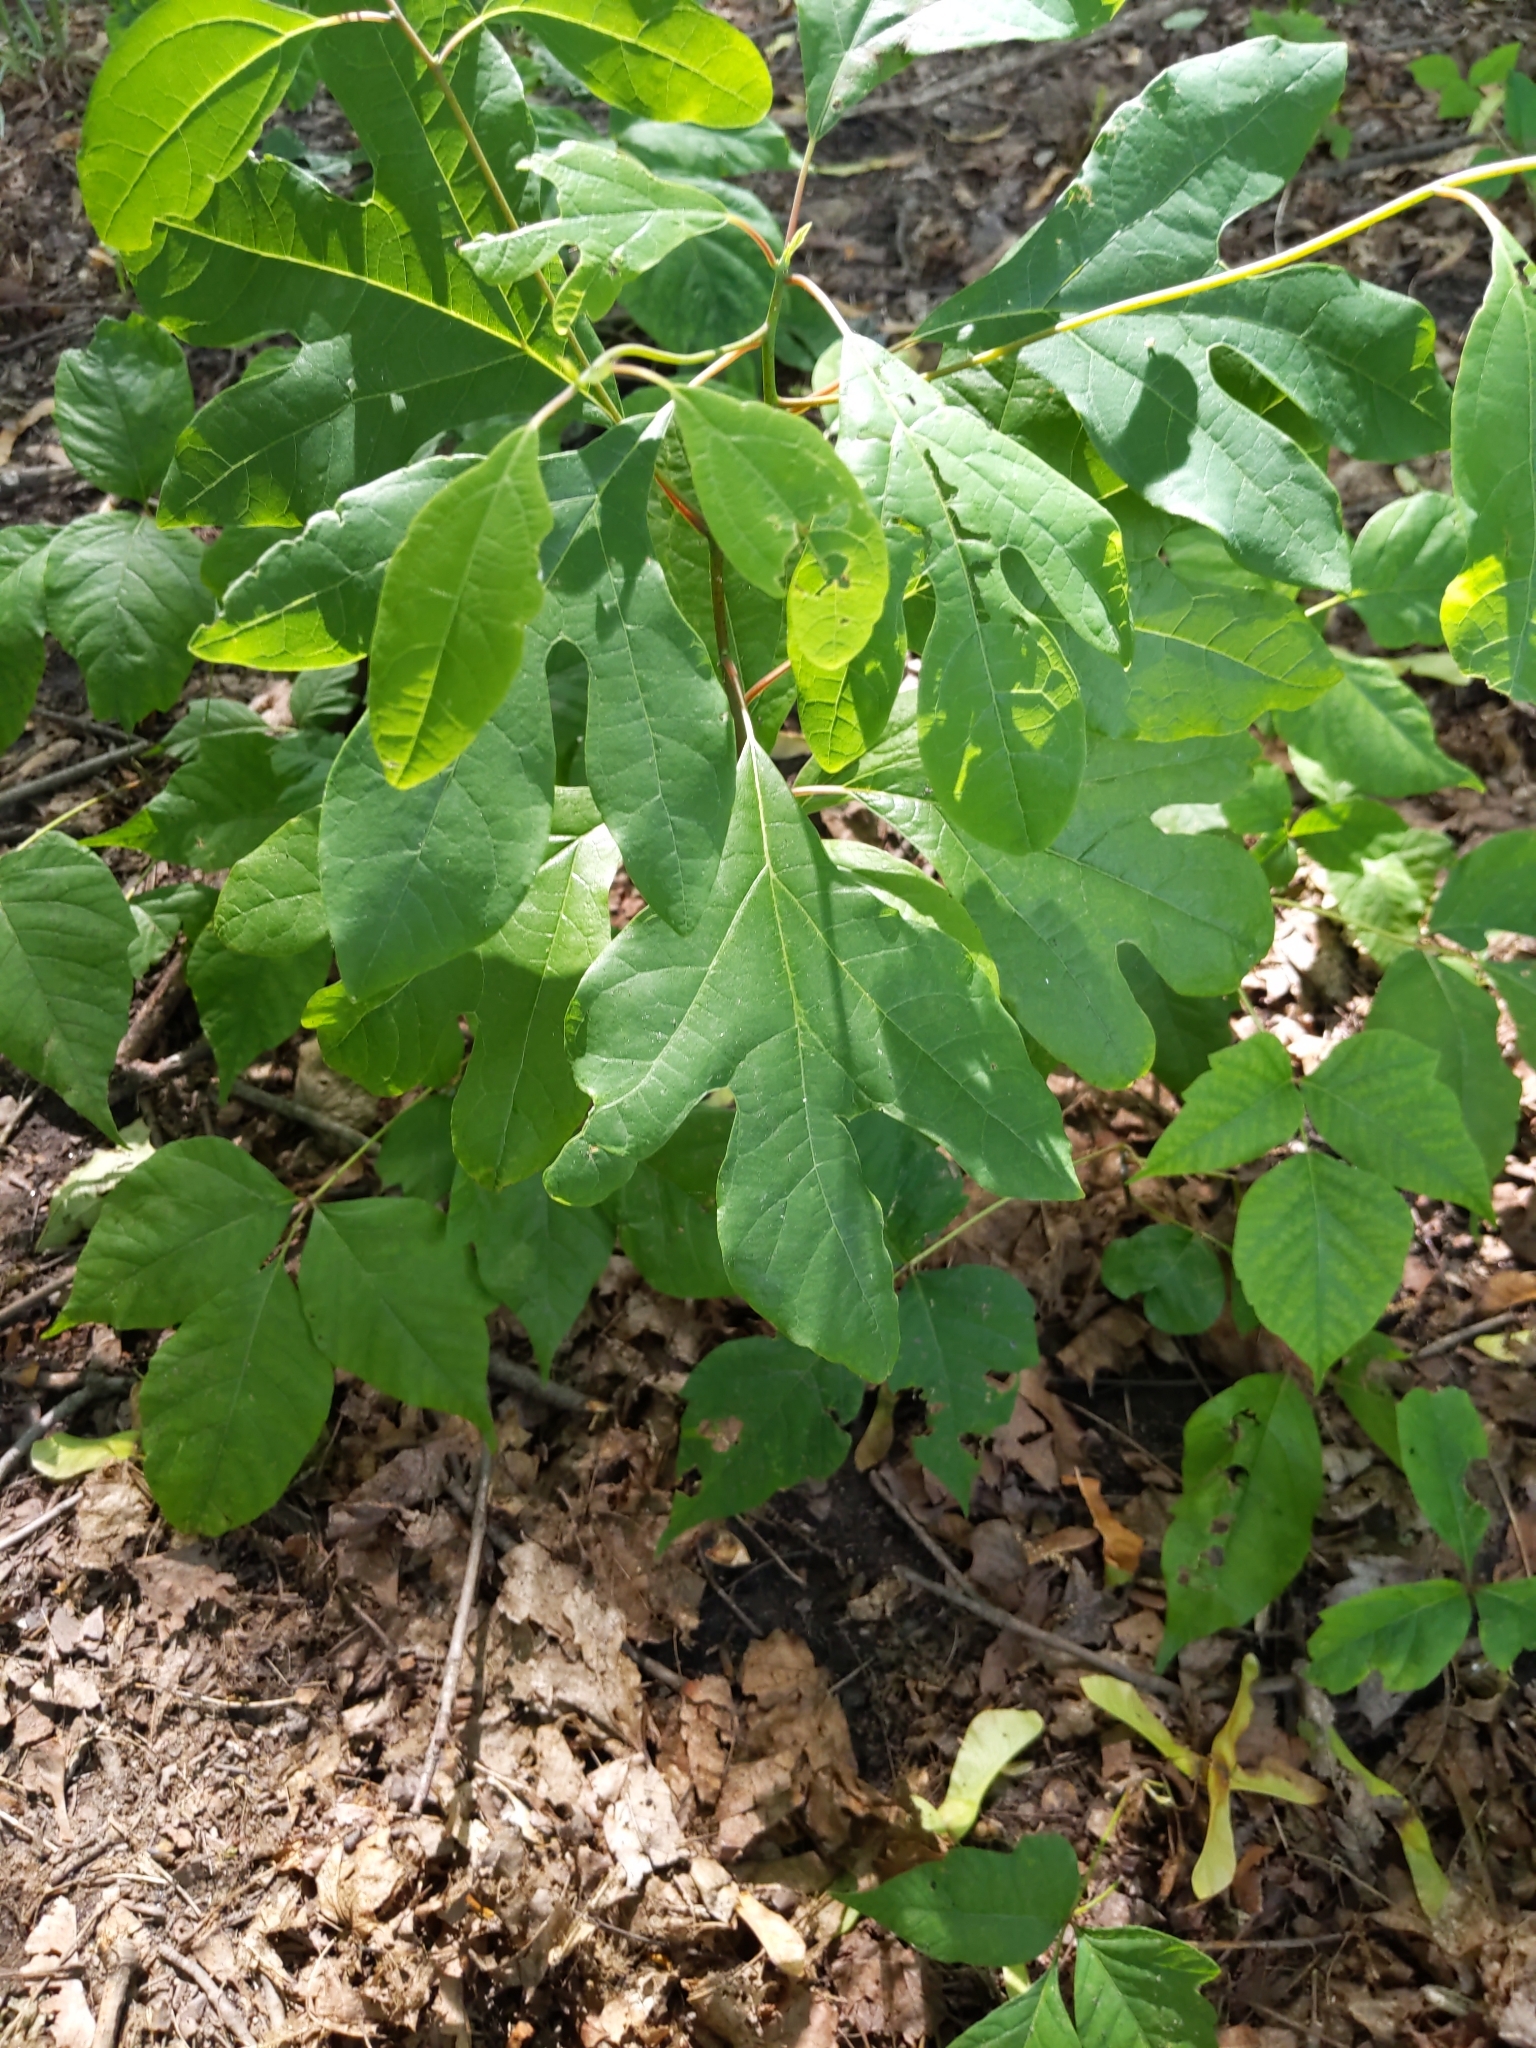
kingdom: Plantae
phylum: Tracheophyta
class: Magnoliopsida
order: Laurales
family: Lauraceae
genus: Sassafras
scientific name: Sassafras albidum
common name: Sassafras
